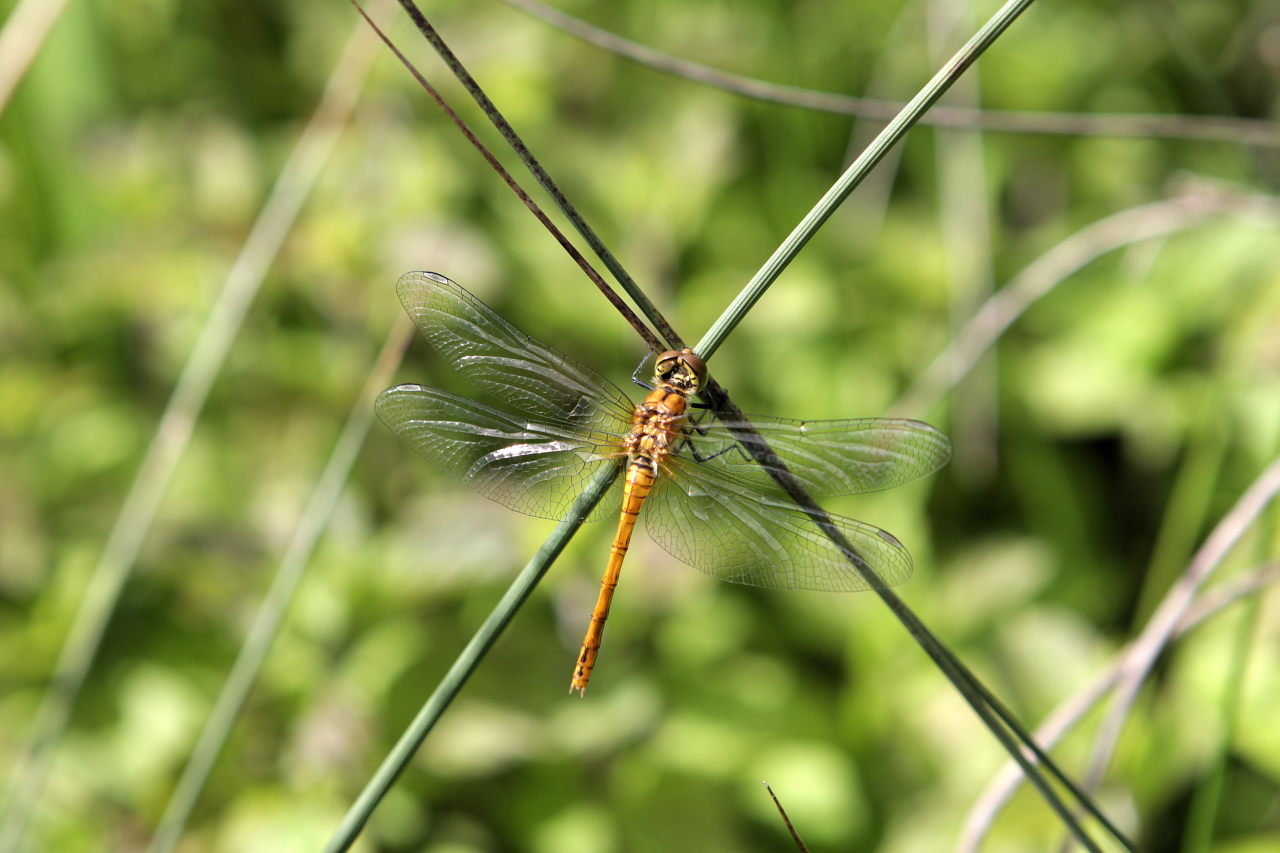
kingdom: Animalia
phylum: Arthropoda
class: Insecta
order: Odonata
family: Libellulidae
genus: Sympetrum
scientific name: Sympetrum sanguineum
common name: Ruddy darter
